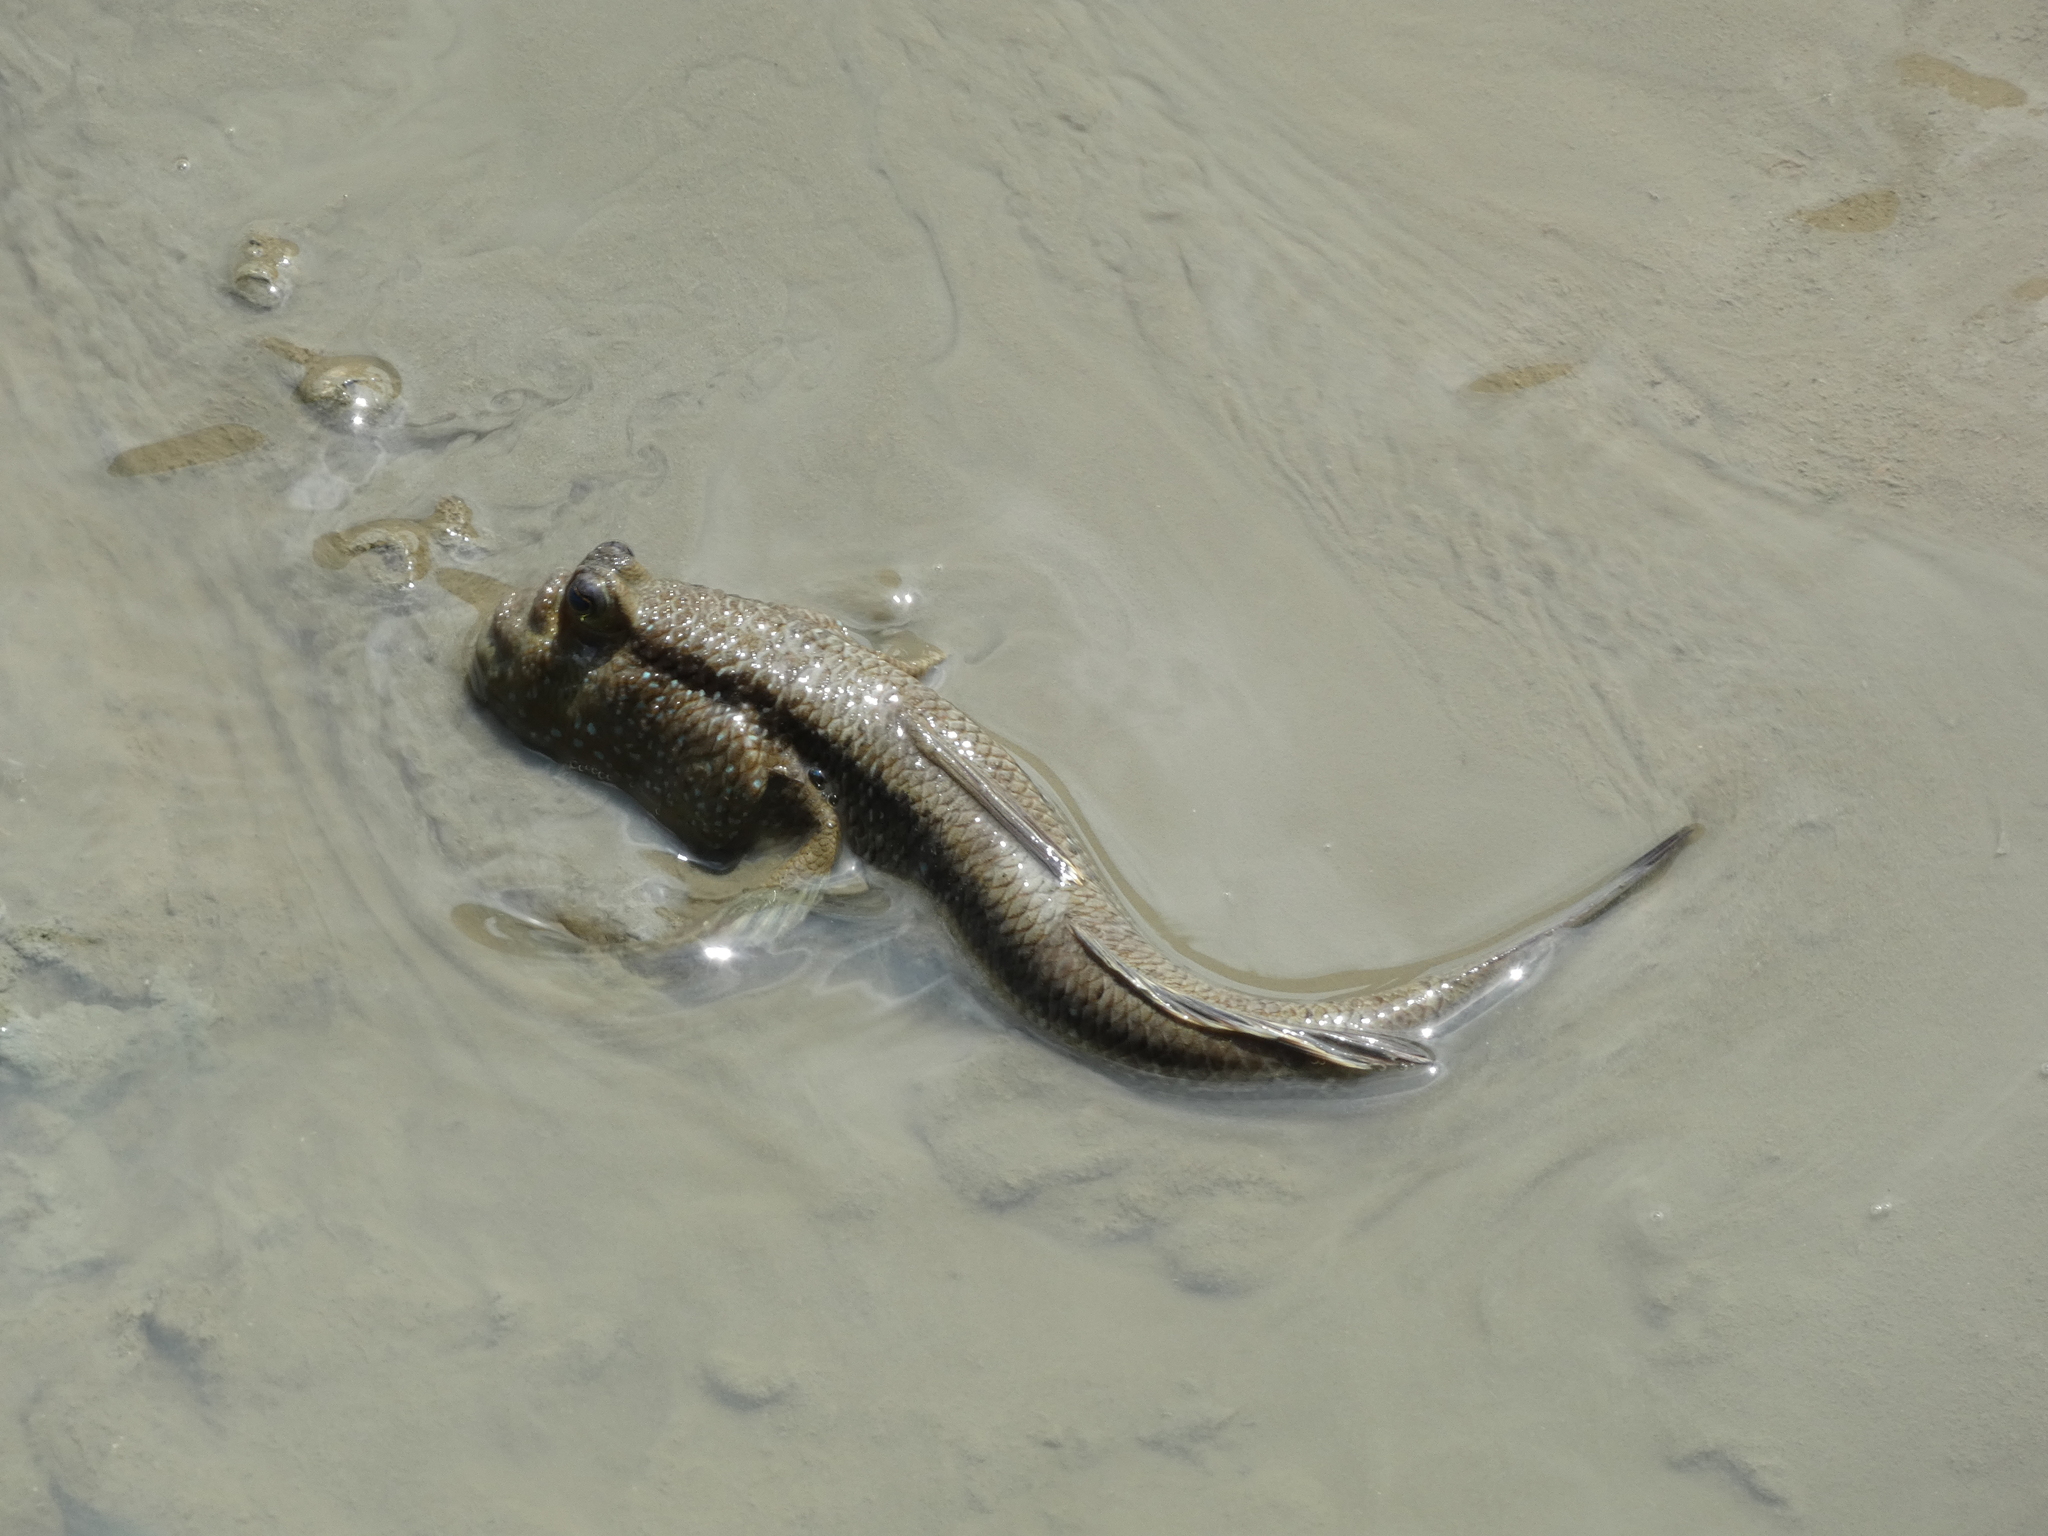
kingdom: Animalia
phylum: Chordata
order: Perciformes
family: Gobiidae
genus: Periophthalmodon
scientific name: Periophthalmodon schlosseri
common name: Giant mudskipper
